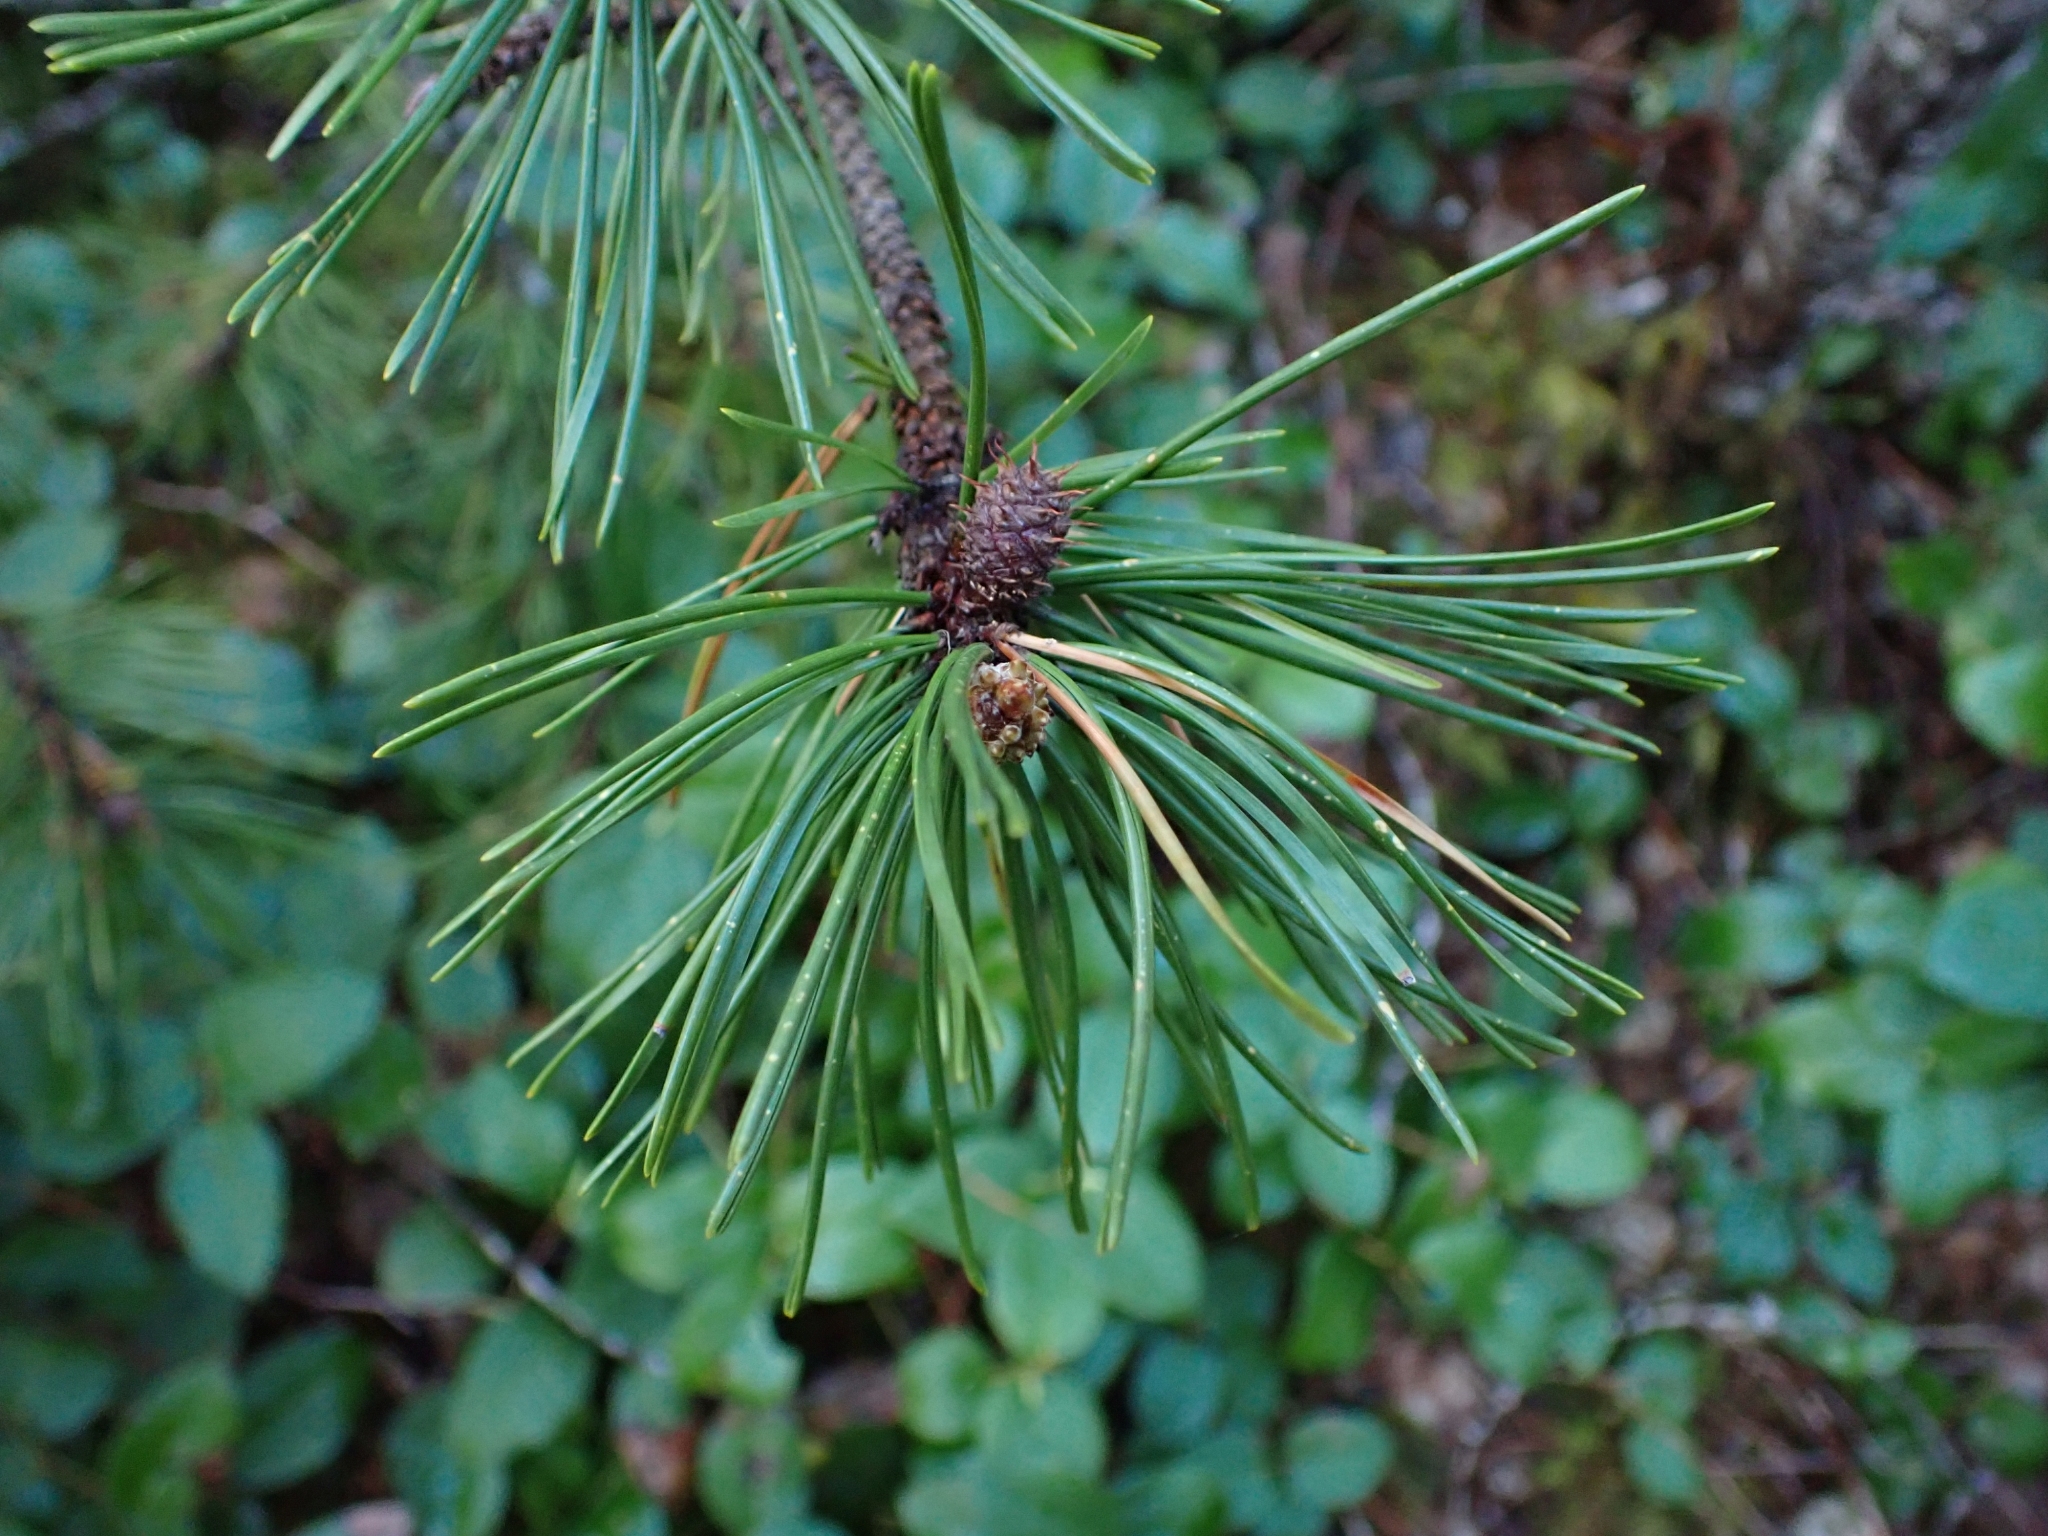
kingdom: Plantae
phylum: Tracheophyta
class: Pinopsida
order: Pinales
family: Pinaceae
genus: Pinus
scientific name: Pinus contorta
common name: Lodgepole pine
